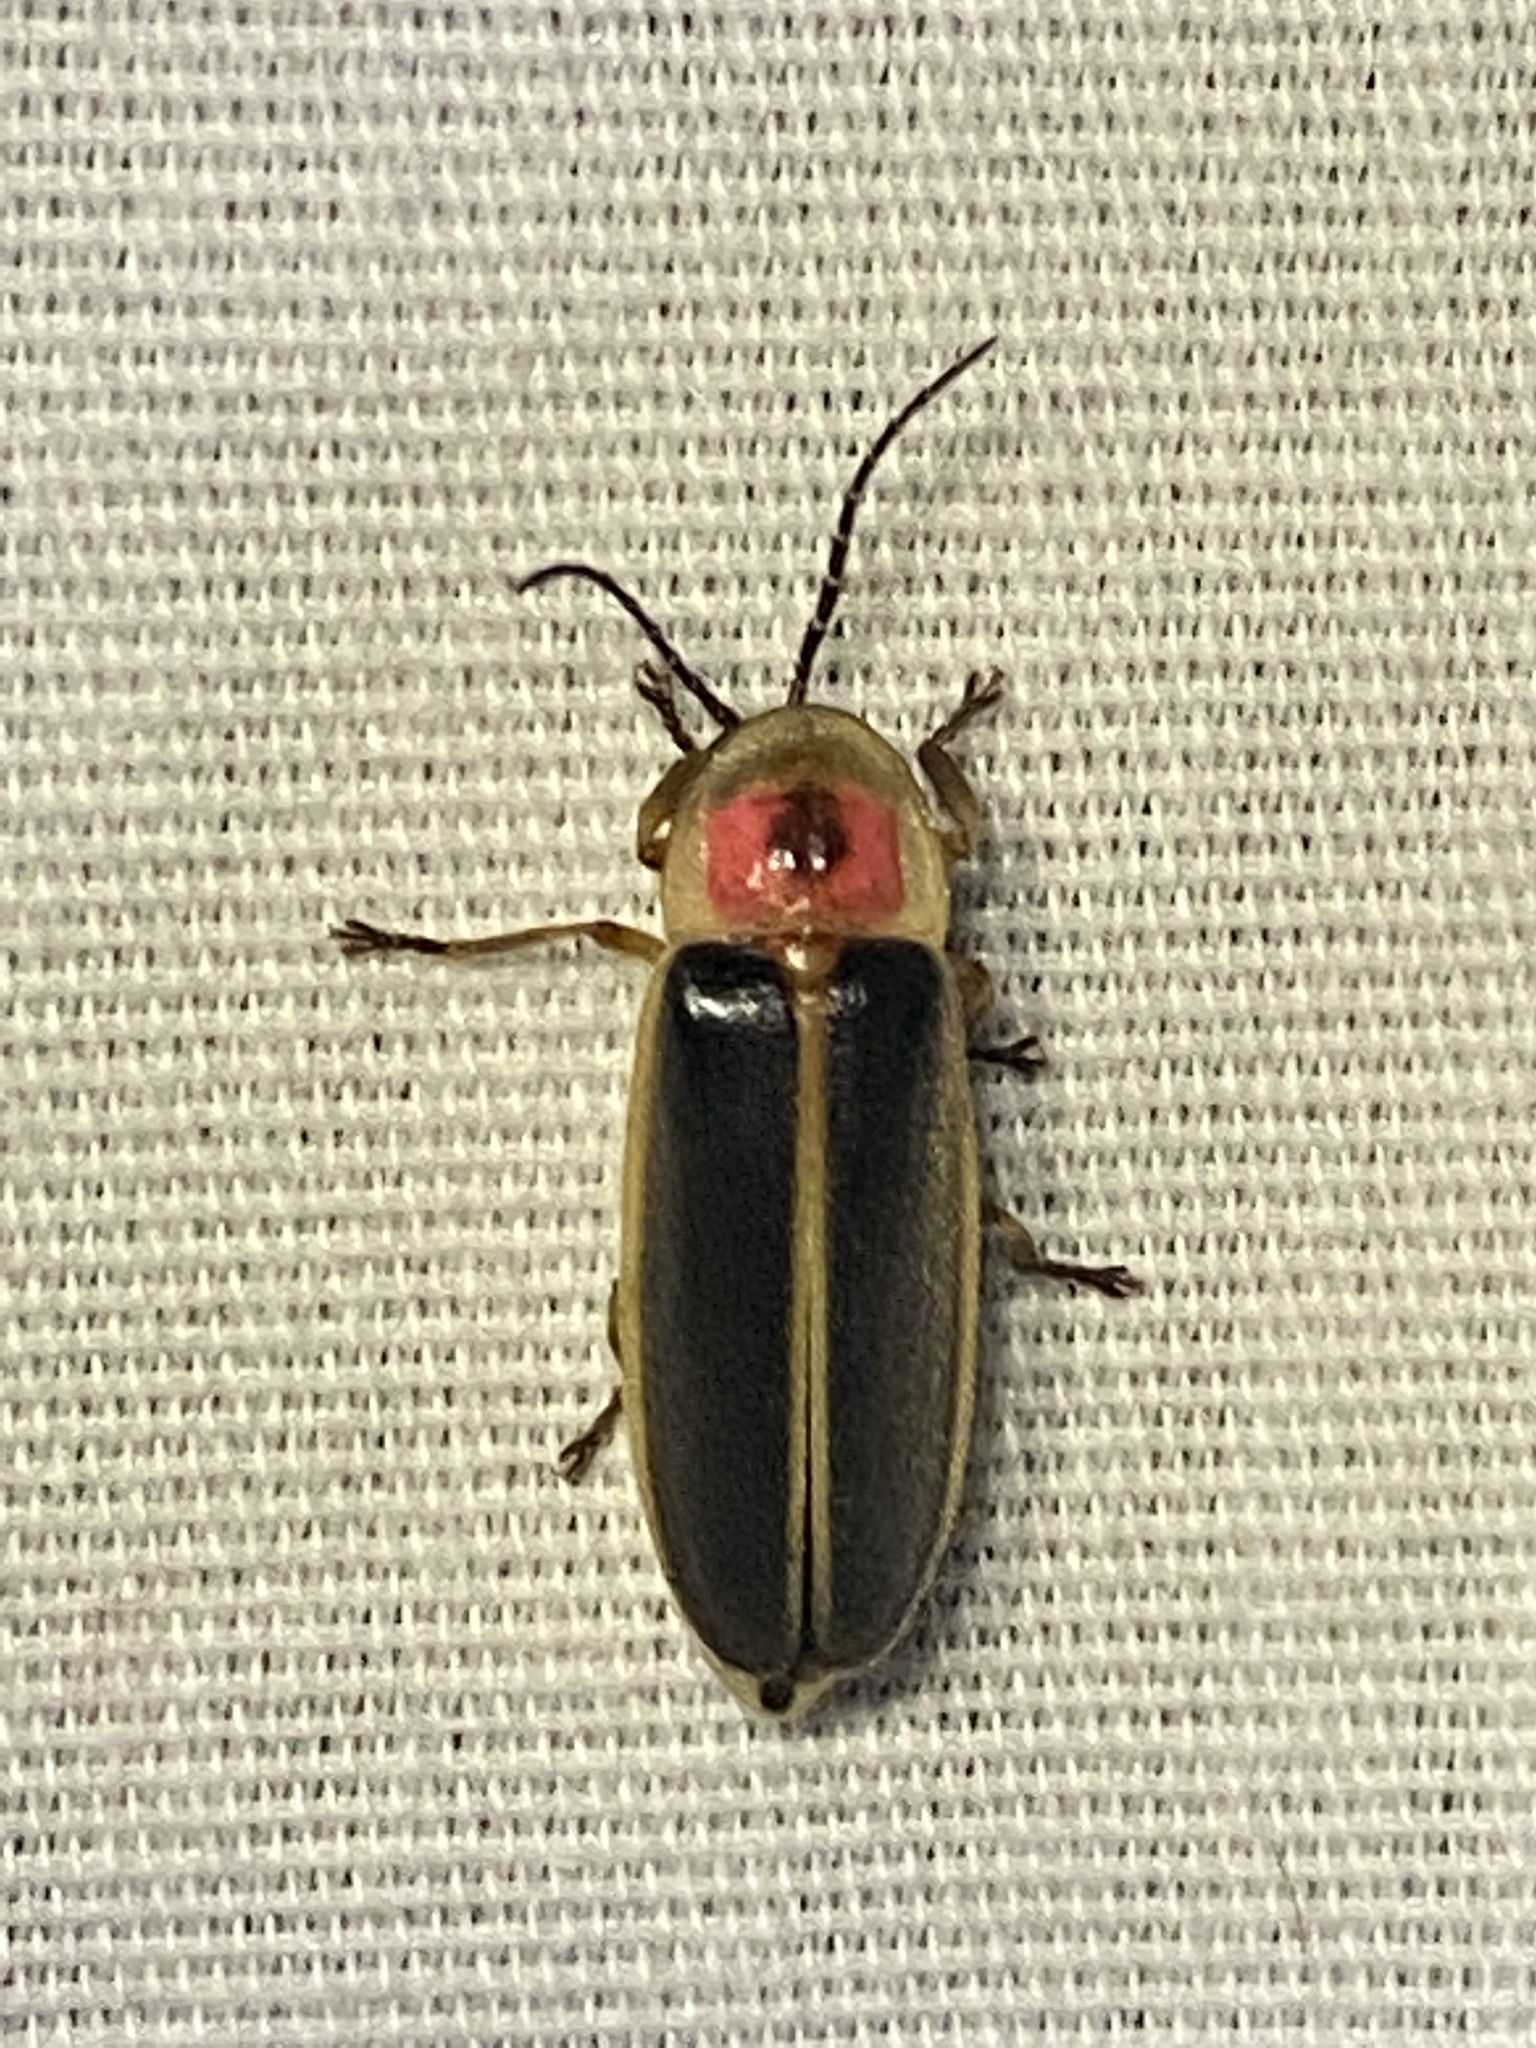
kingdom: Animalia
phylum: Arthropoda
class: Insecta
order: Coleoptera
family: Lampyridae
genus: Photinus
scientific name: Photinus pyralis
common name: Big dipper firefly
